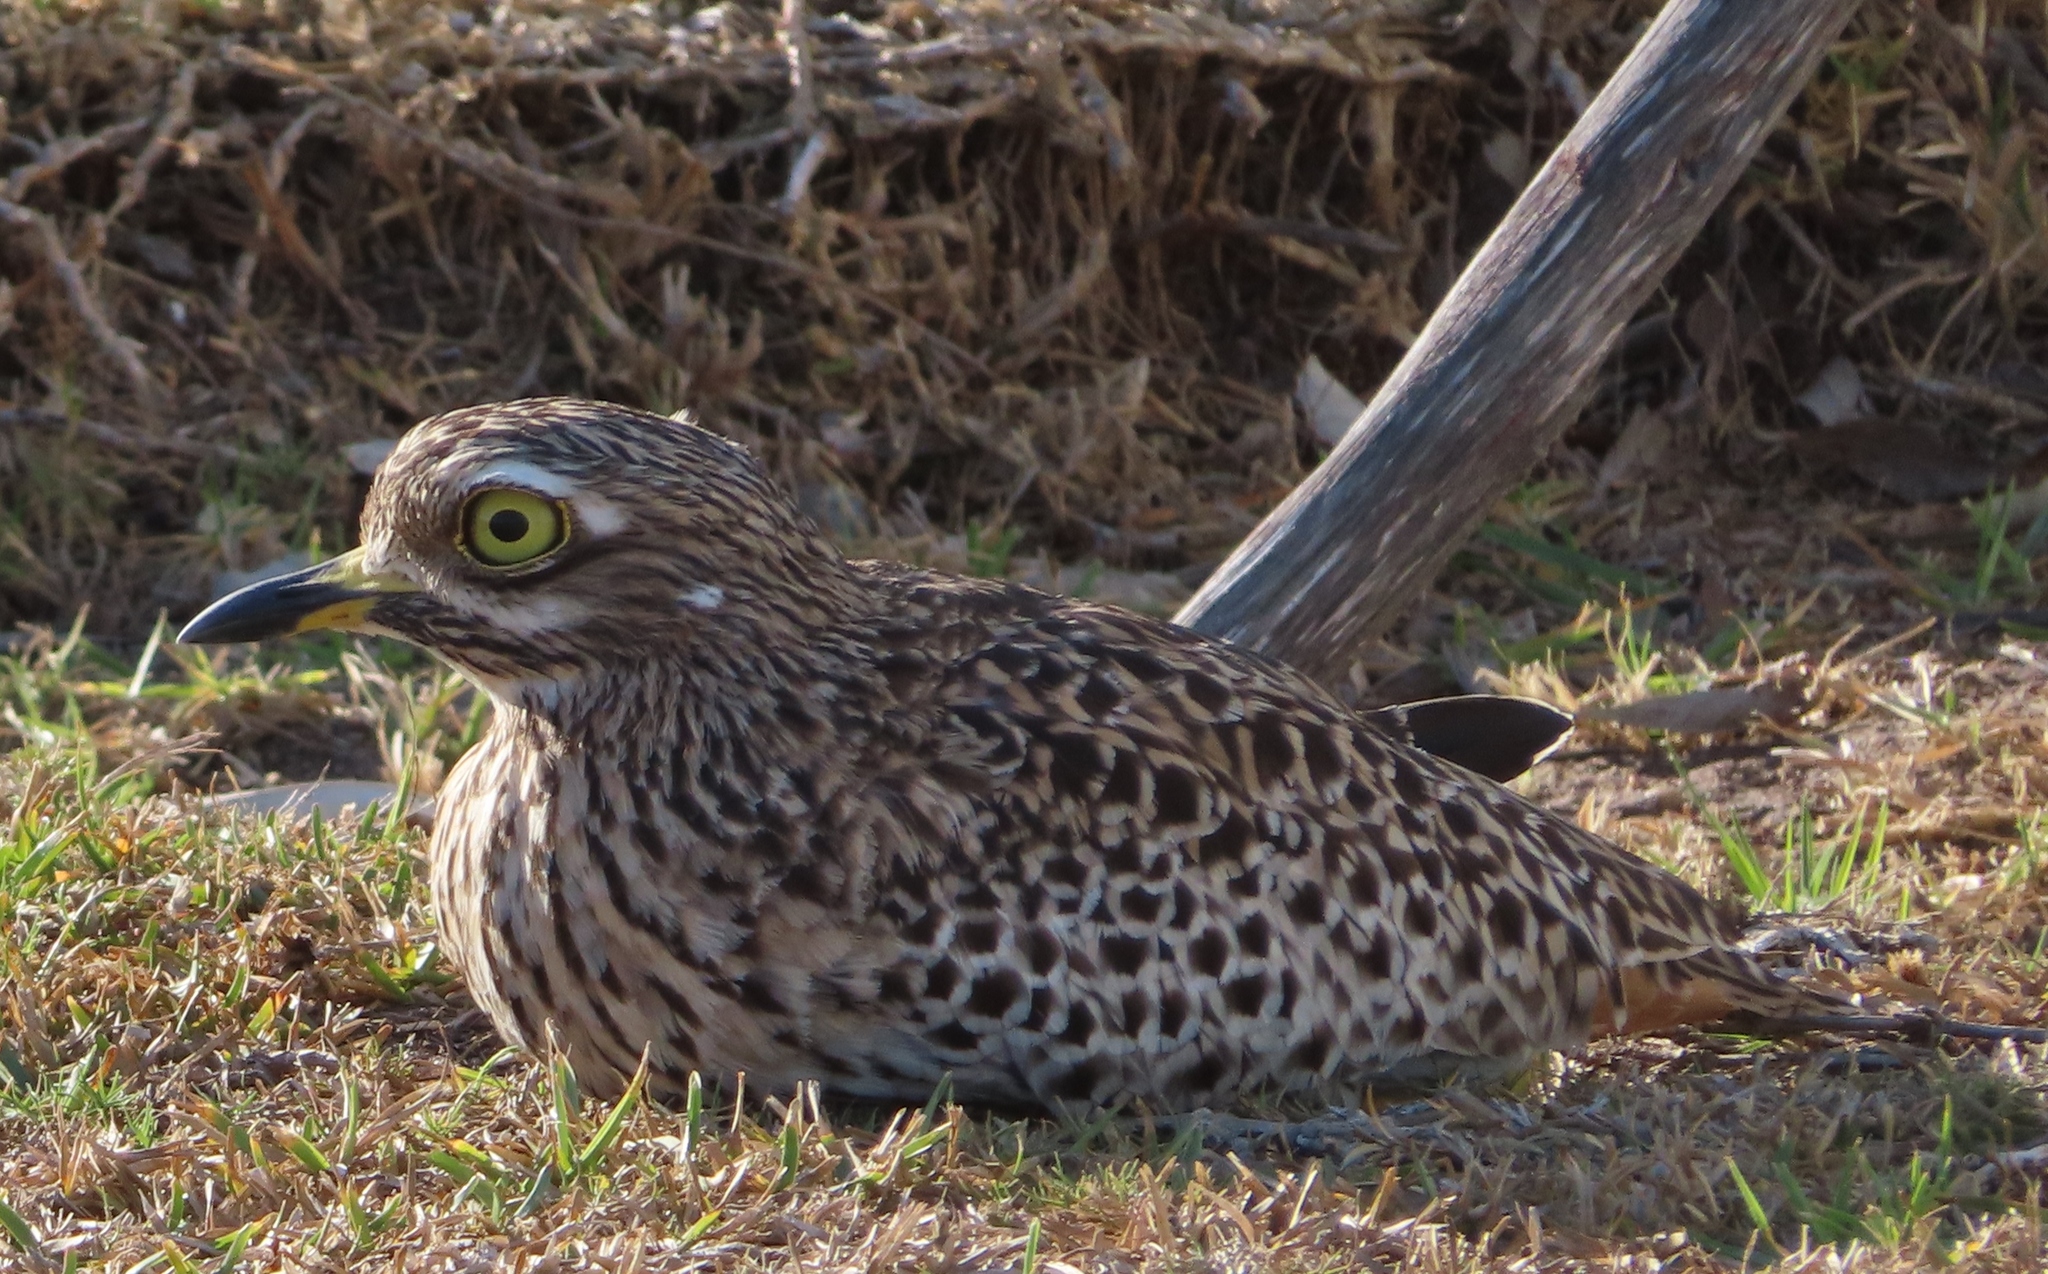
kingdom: Animalia
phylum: Chordata
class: Aves
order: Charadriiformes
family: Burhinidae
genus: Burhinus
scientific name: Burhinus capensis
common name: Spotted thick-knee
